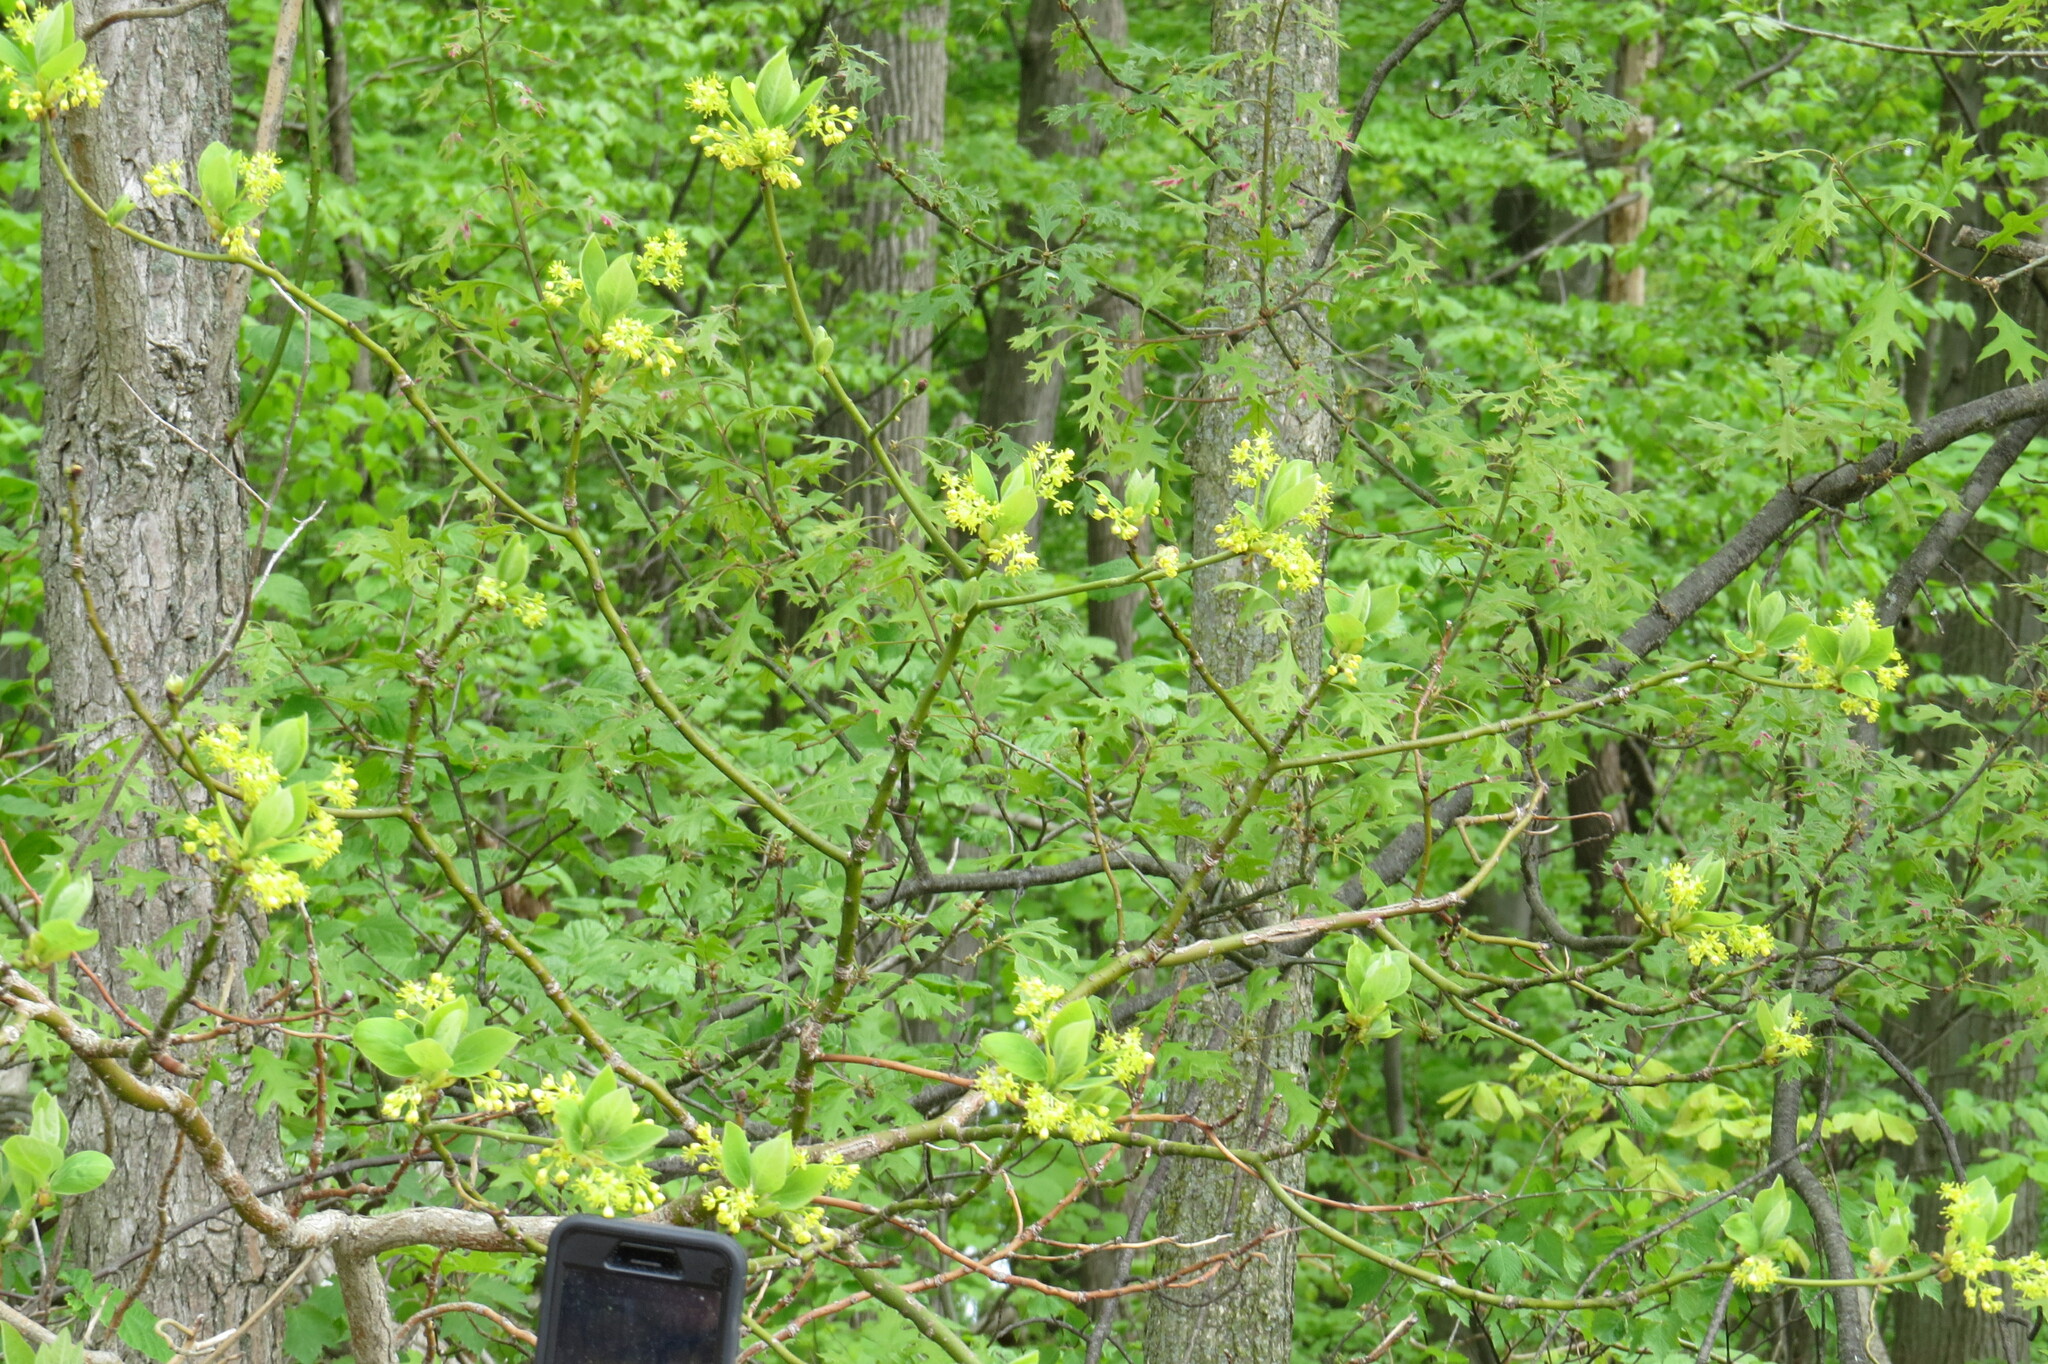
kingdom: Plantae
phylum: Tracheophyta
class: Magnoliopsida
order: Laurales
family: Lauraceae
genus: Lindera
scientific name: Lindera benzoin
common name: Spicebush
